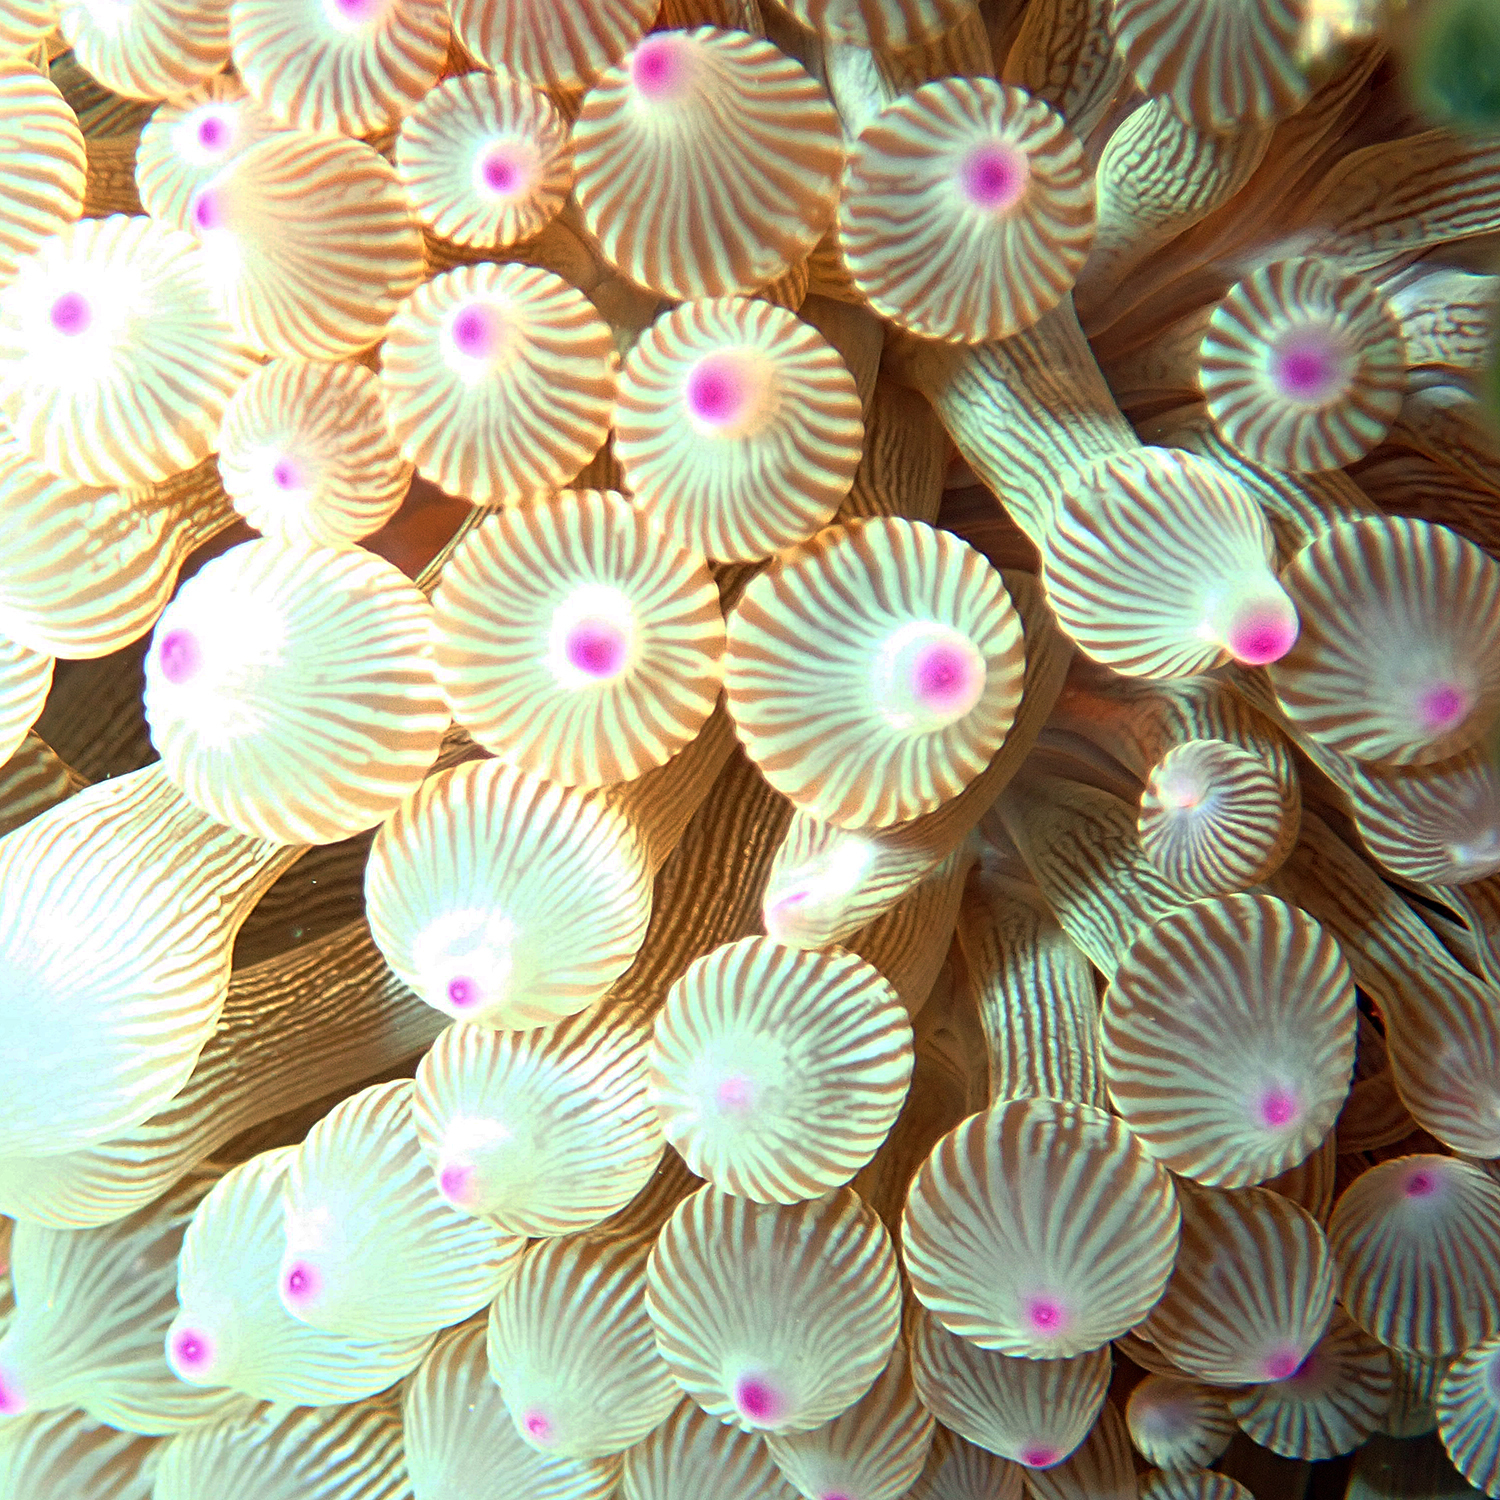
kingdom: Animalia
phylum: Cnidaria
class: Anthozoa
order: Actiniaria
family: Actiniidae
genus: Entacmaea
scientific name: Entacmaea quadricolor
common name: Bulb tentacle sea anemone
